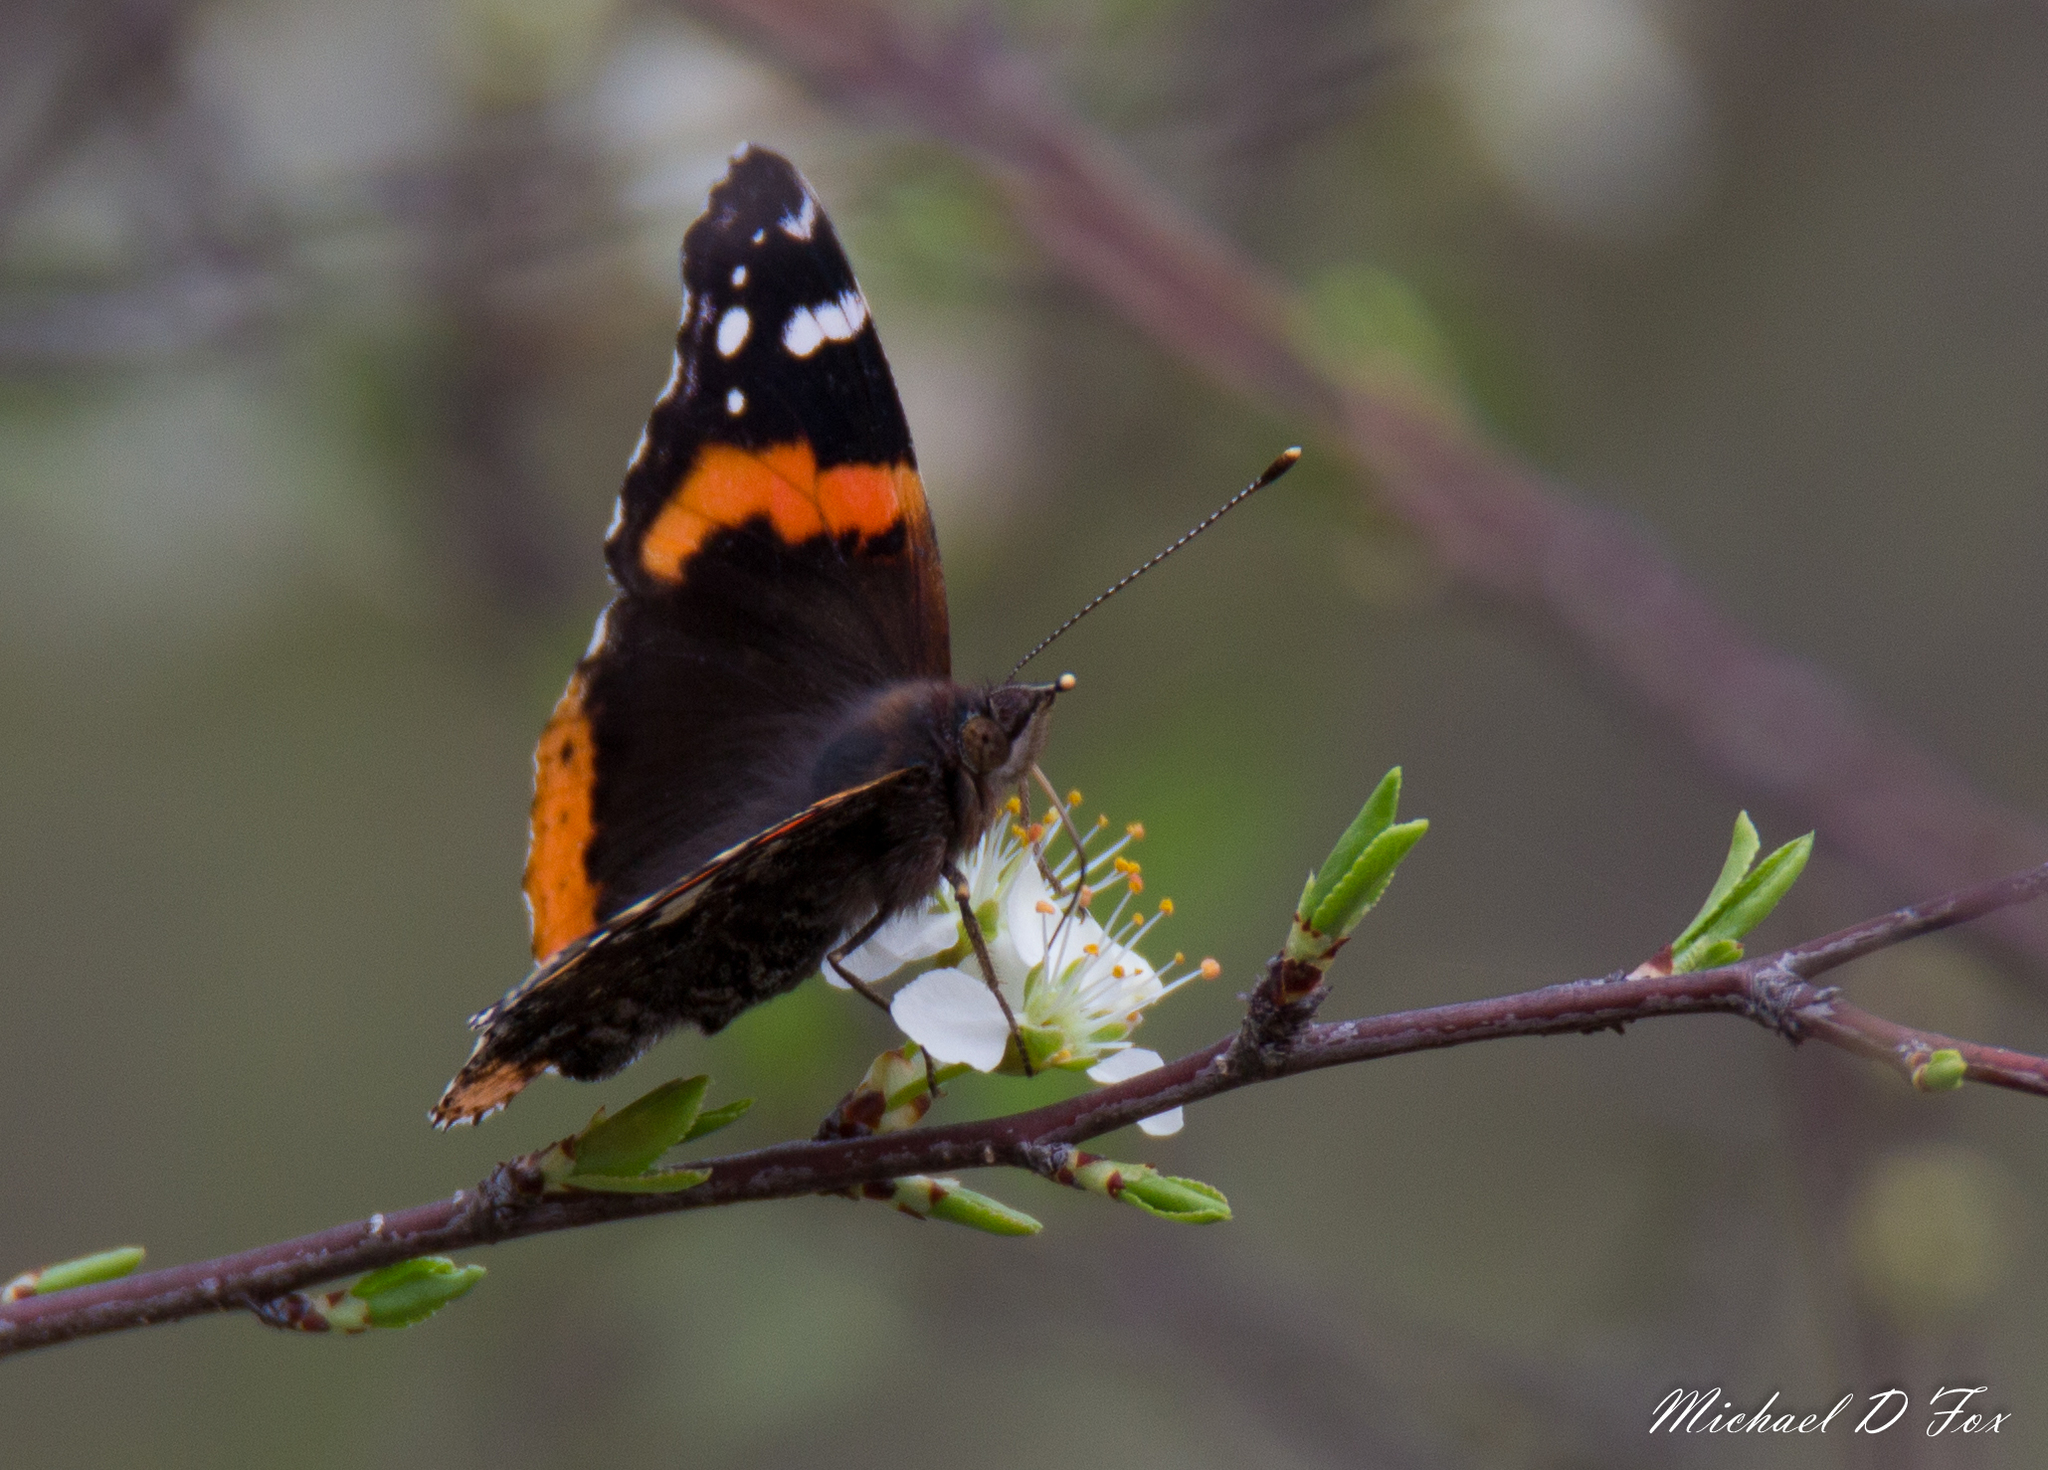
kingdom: Animalia
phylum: Arthropoda
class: Insecta
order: Lepidoptera
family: Nymphalidae
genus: Vanessa
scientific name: Vanessa atalanta
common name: Red admiral
